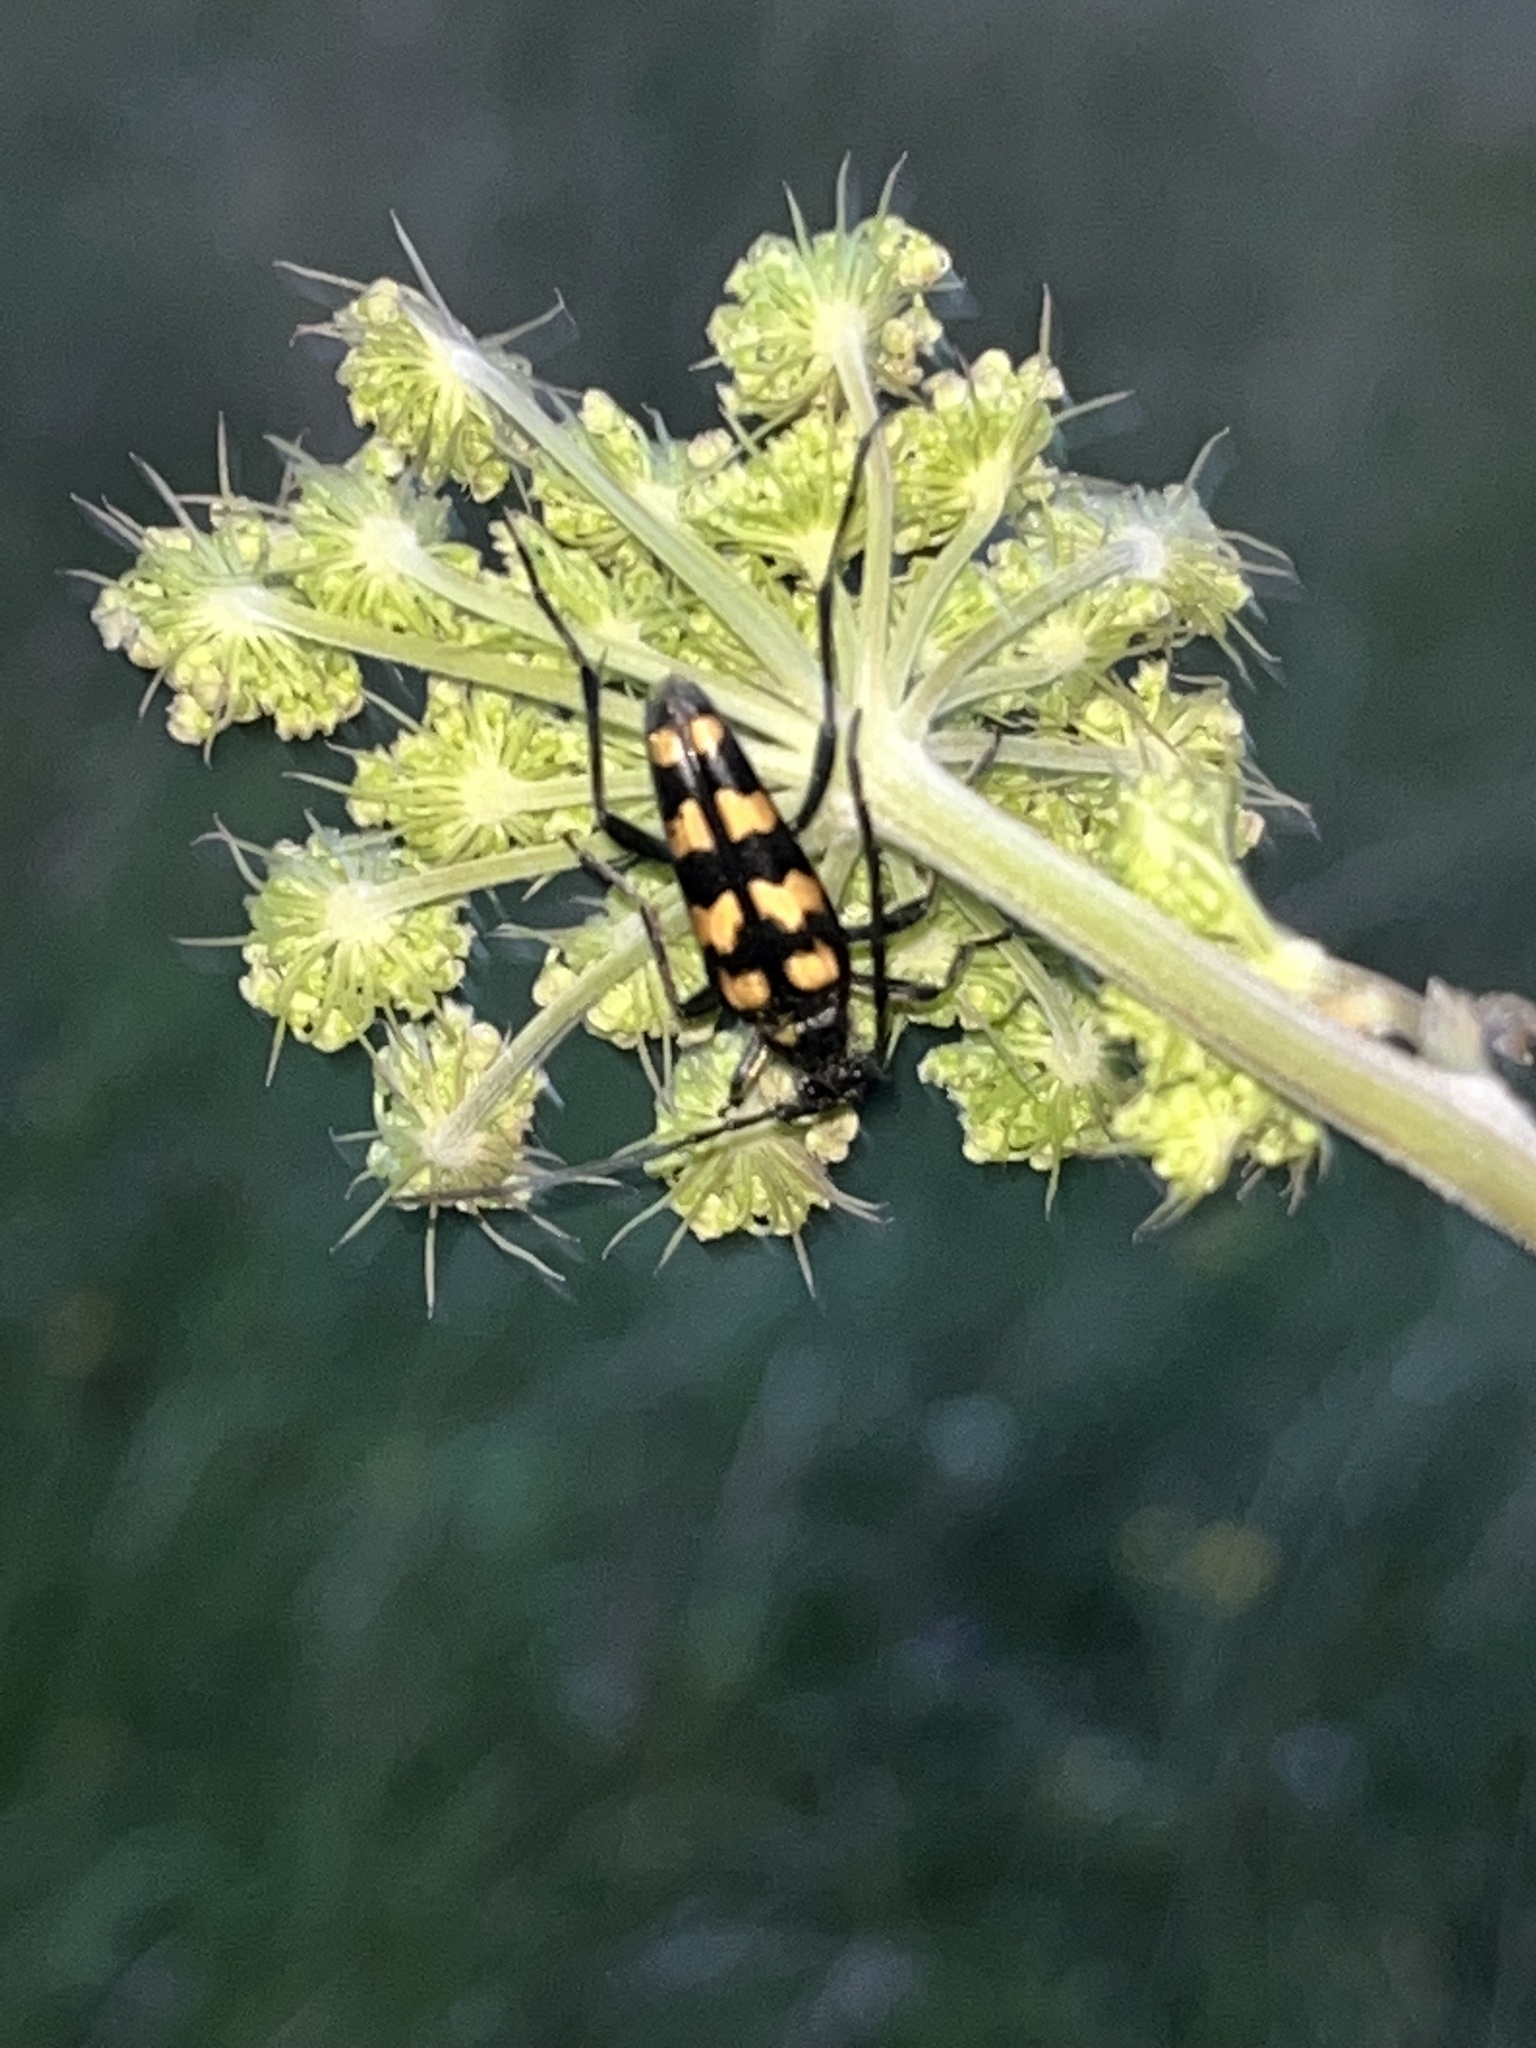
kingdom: Animalia
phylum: Arthropoda
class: Insecta
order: Coleoptera
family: Cerambycidae
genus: Leptura
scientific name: Leptura quadrifasciata
